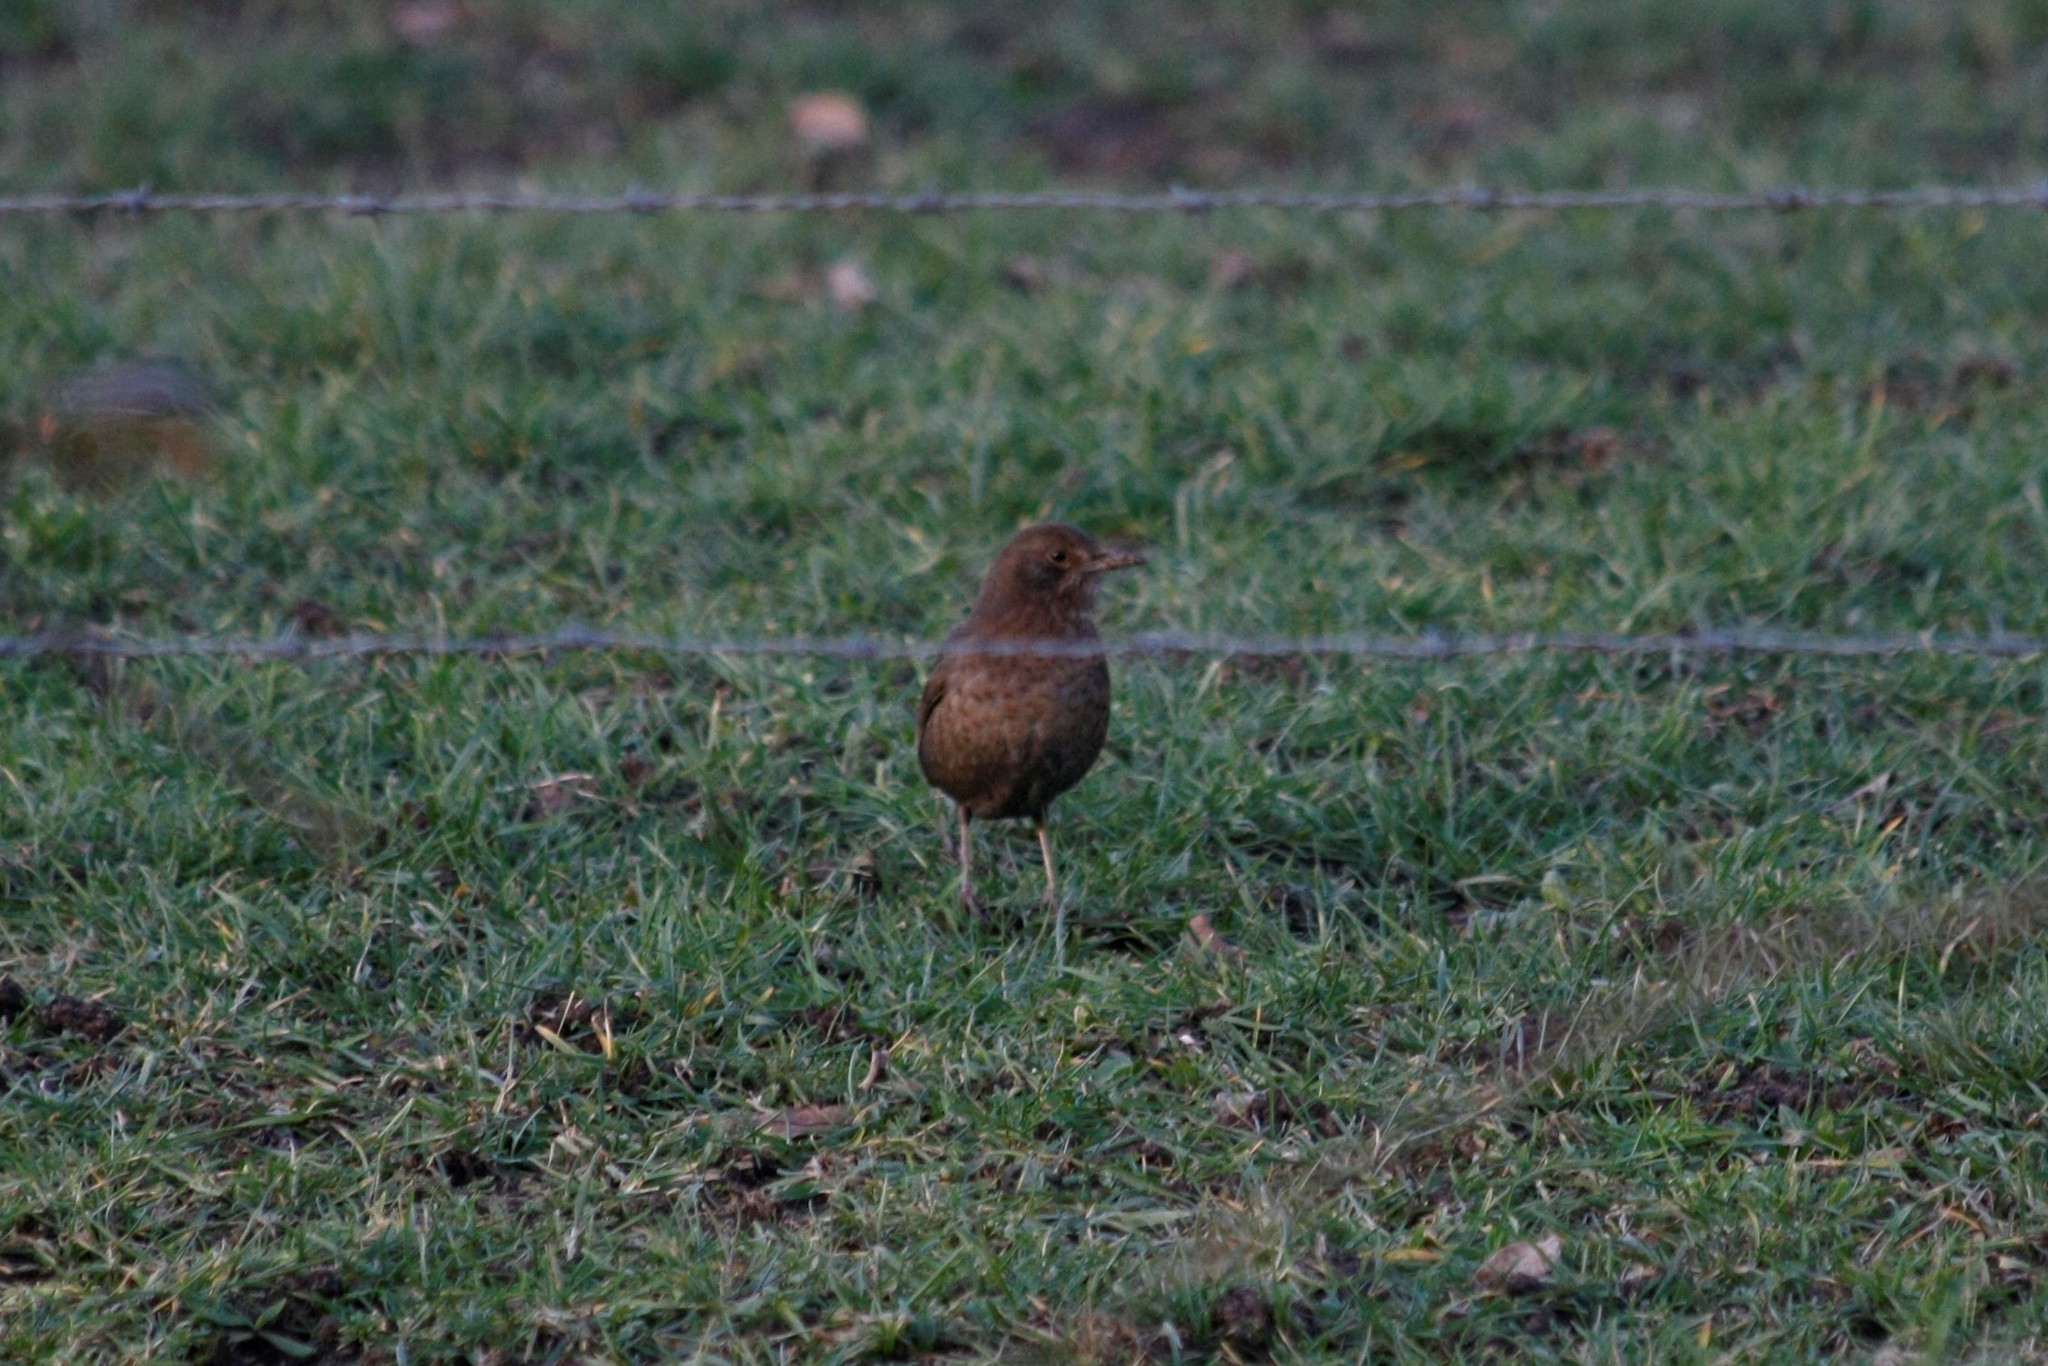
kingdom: Animalia
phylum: Chordata
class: Aves
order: Passeriformes
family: Turdidae
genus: Turdus
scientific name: Turdus merula
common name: Common blackbird
